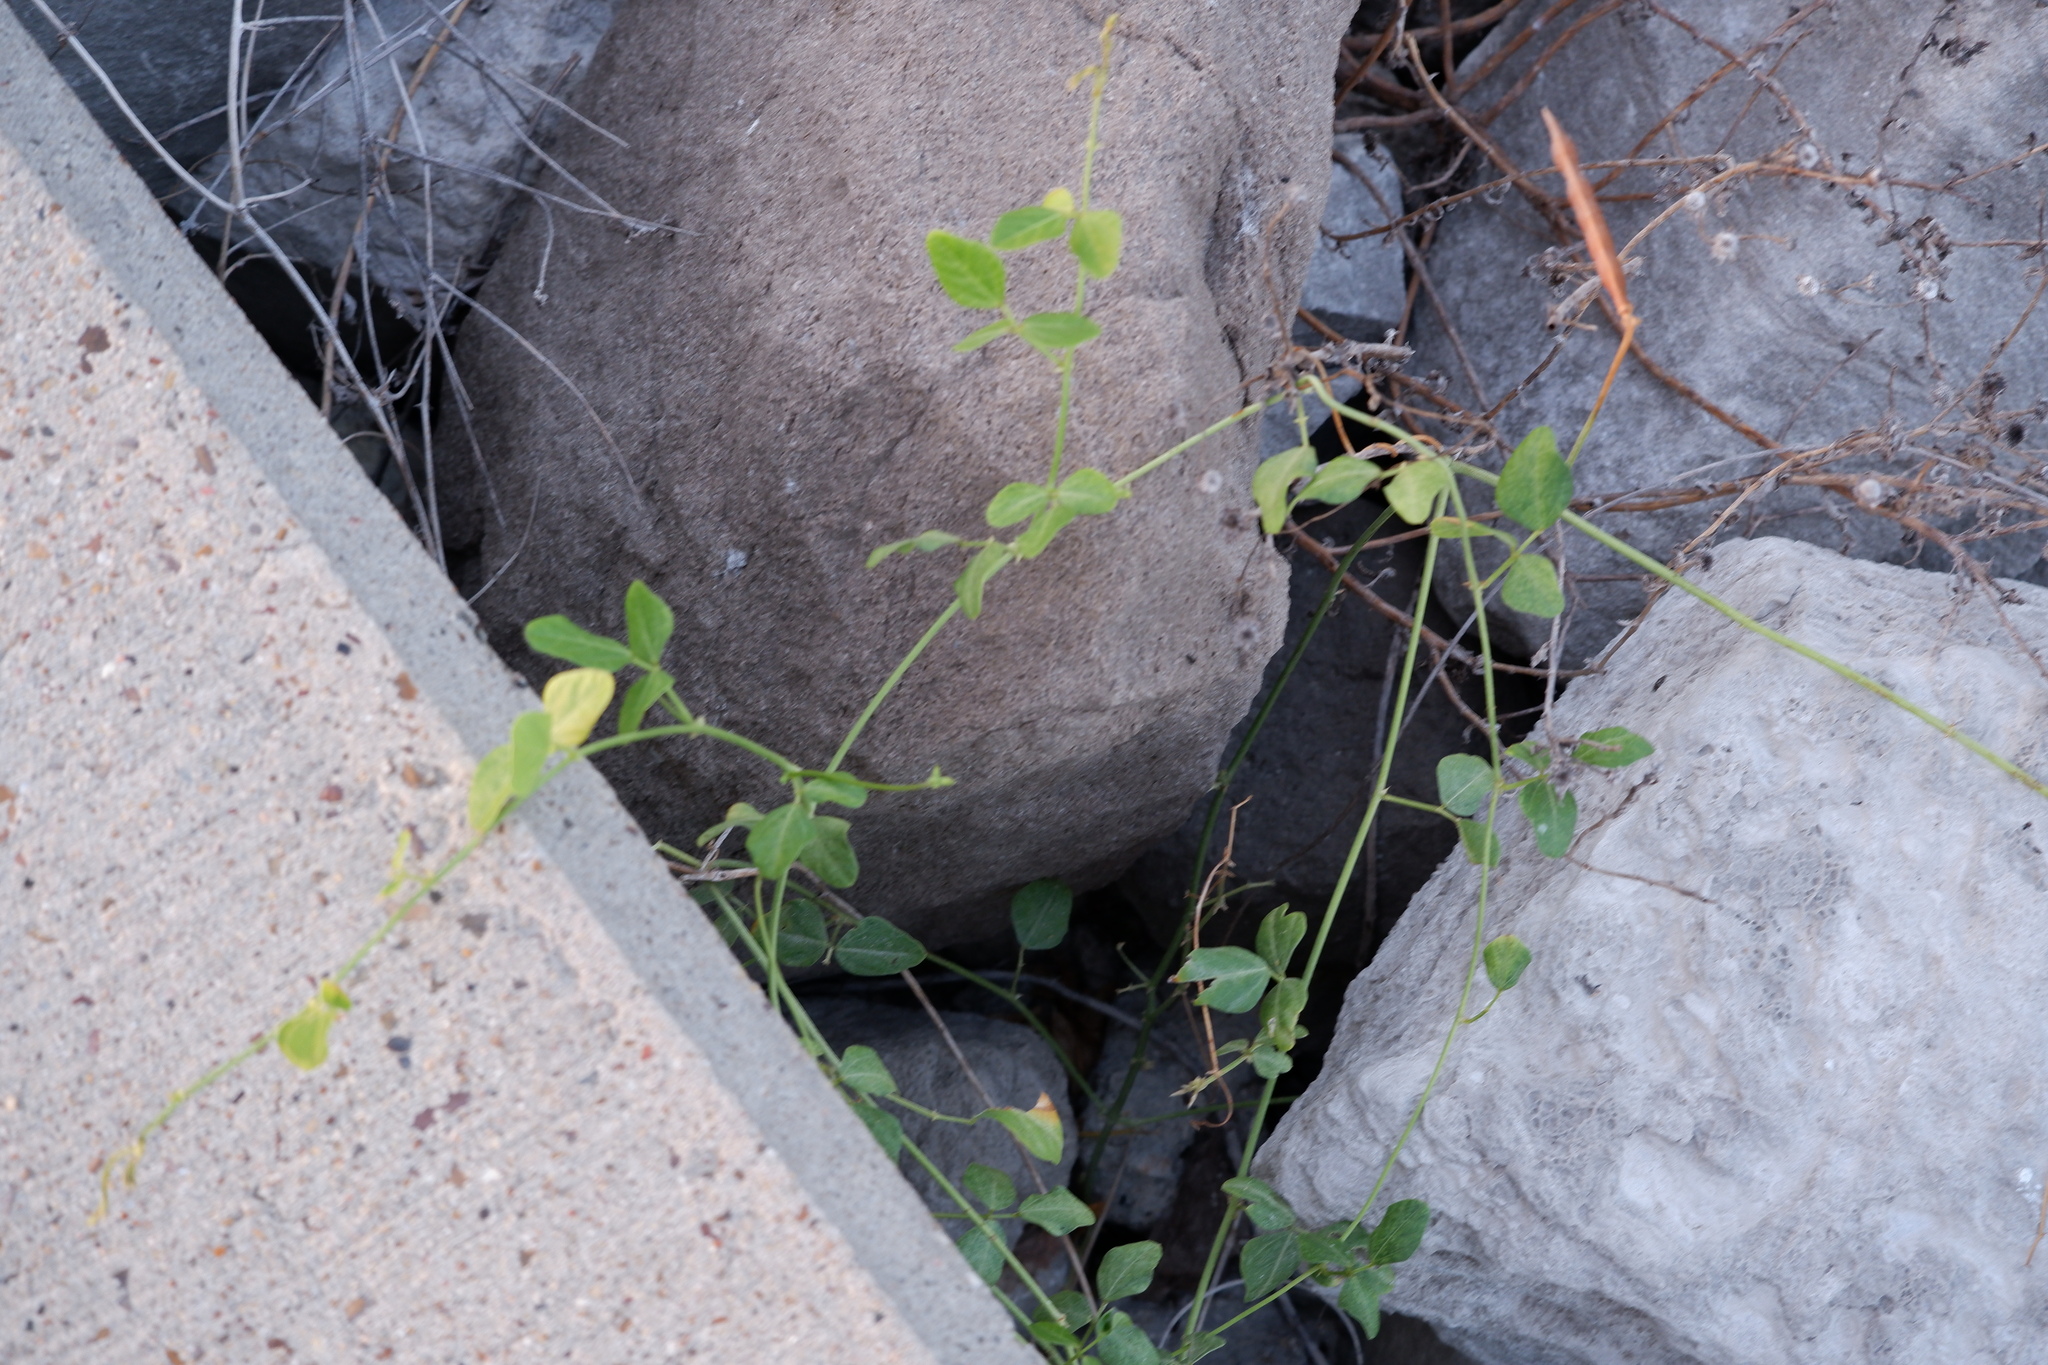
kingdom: Plantae
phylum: Tracheophyta
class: Magnoliopsida
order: Fabales
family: Fabaceae
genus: Rhynchosia
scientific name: Rhynchosia minima
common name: Least snoutbean
